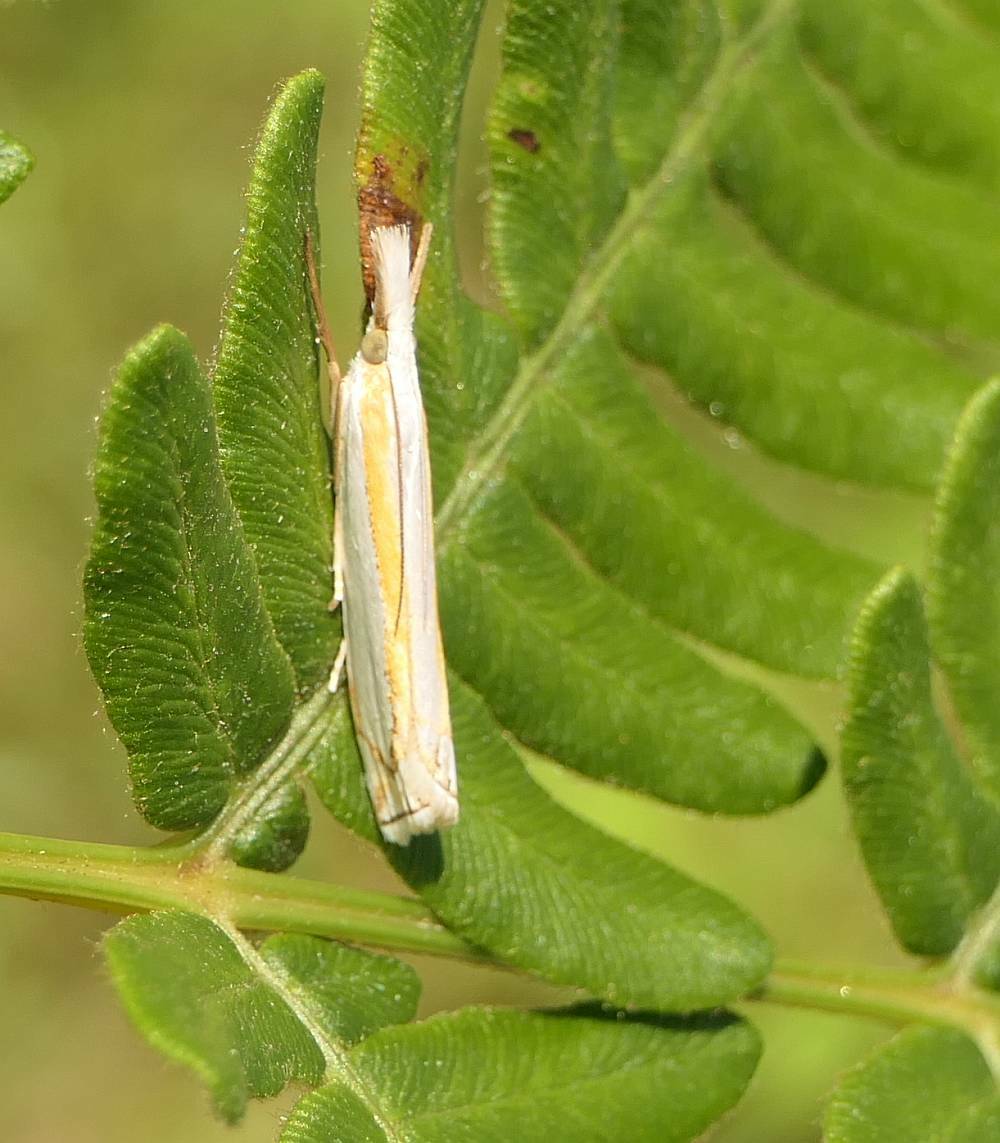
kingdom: Animalia
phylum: Arthropoda
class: Insecta
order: Lepidoptera
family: Crambidae
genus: Crambus
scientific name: Crambus girardellus
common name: Girard's grass-veneer
